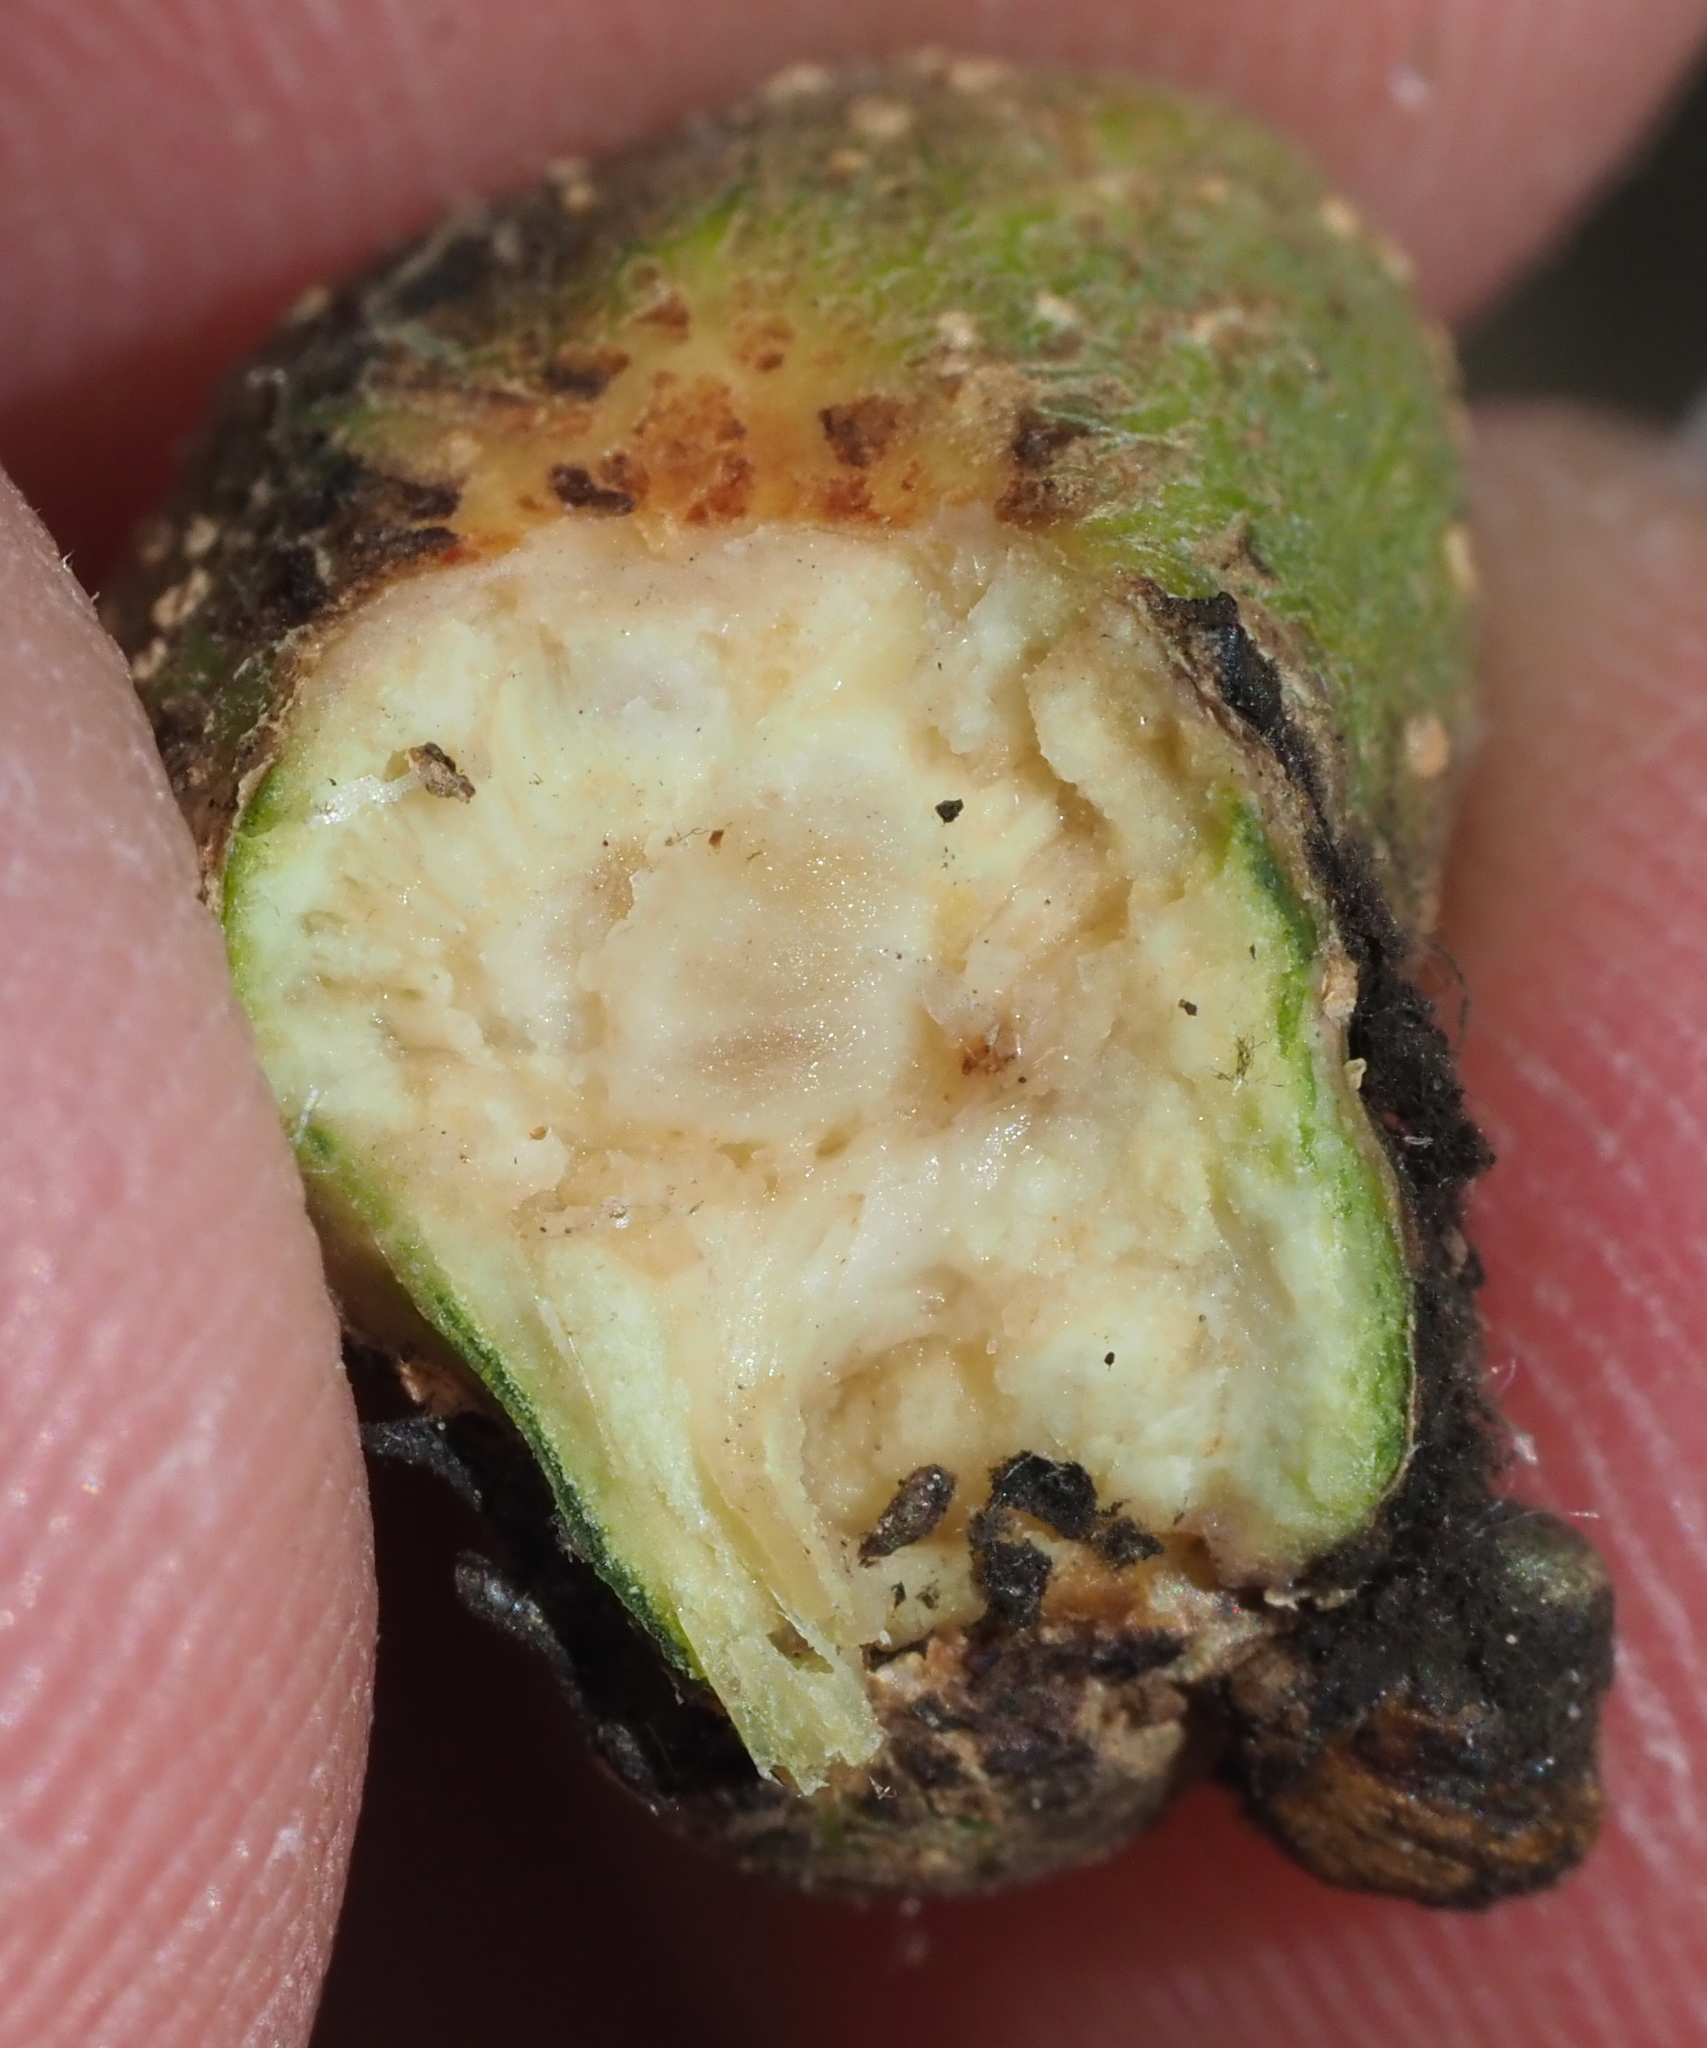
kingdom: Animalia
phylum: Arthropoda
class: Insecta
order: Hymenoptera
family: Cynipidae
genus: Callirhytis
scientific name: Callirhytis
